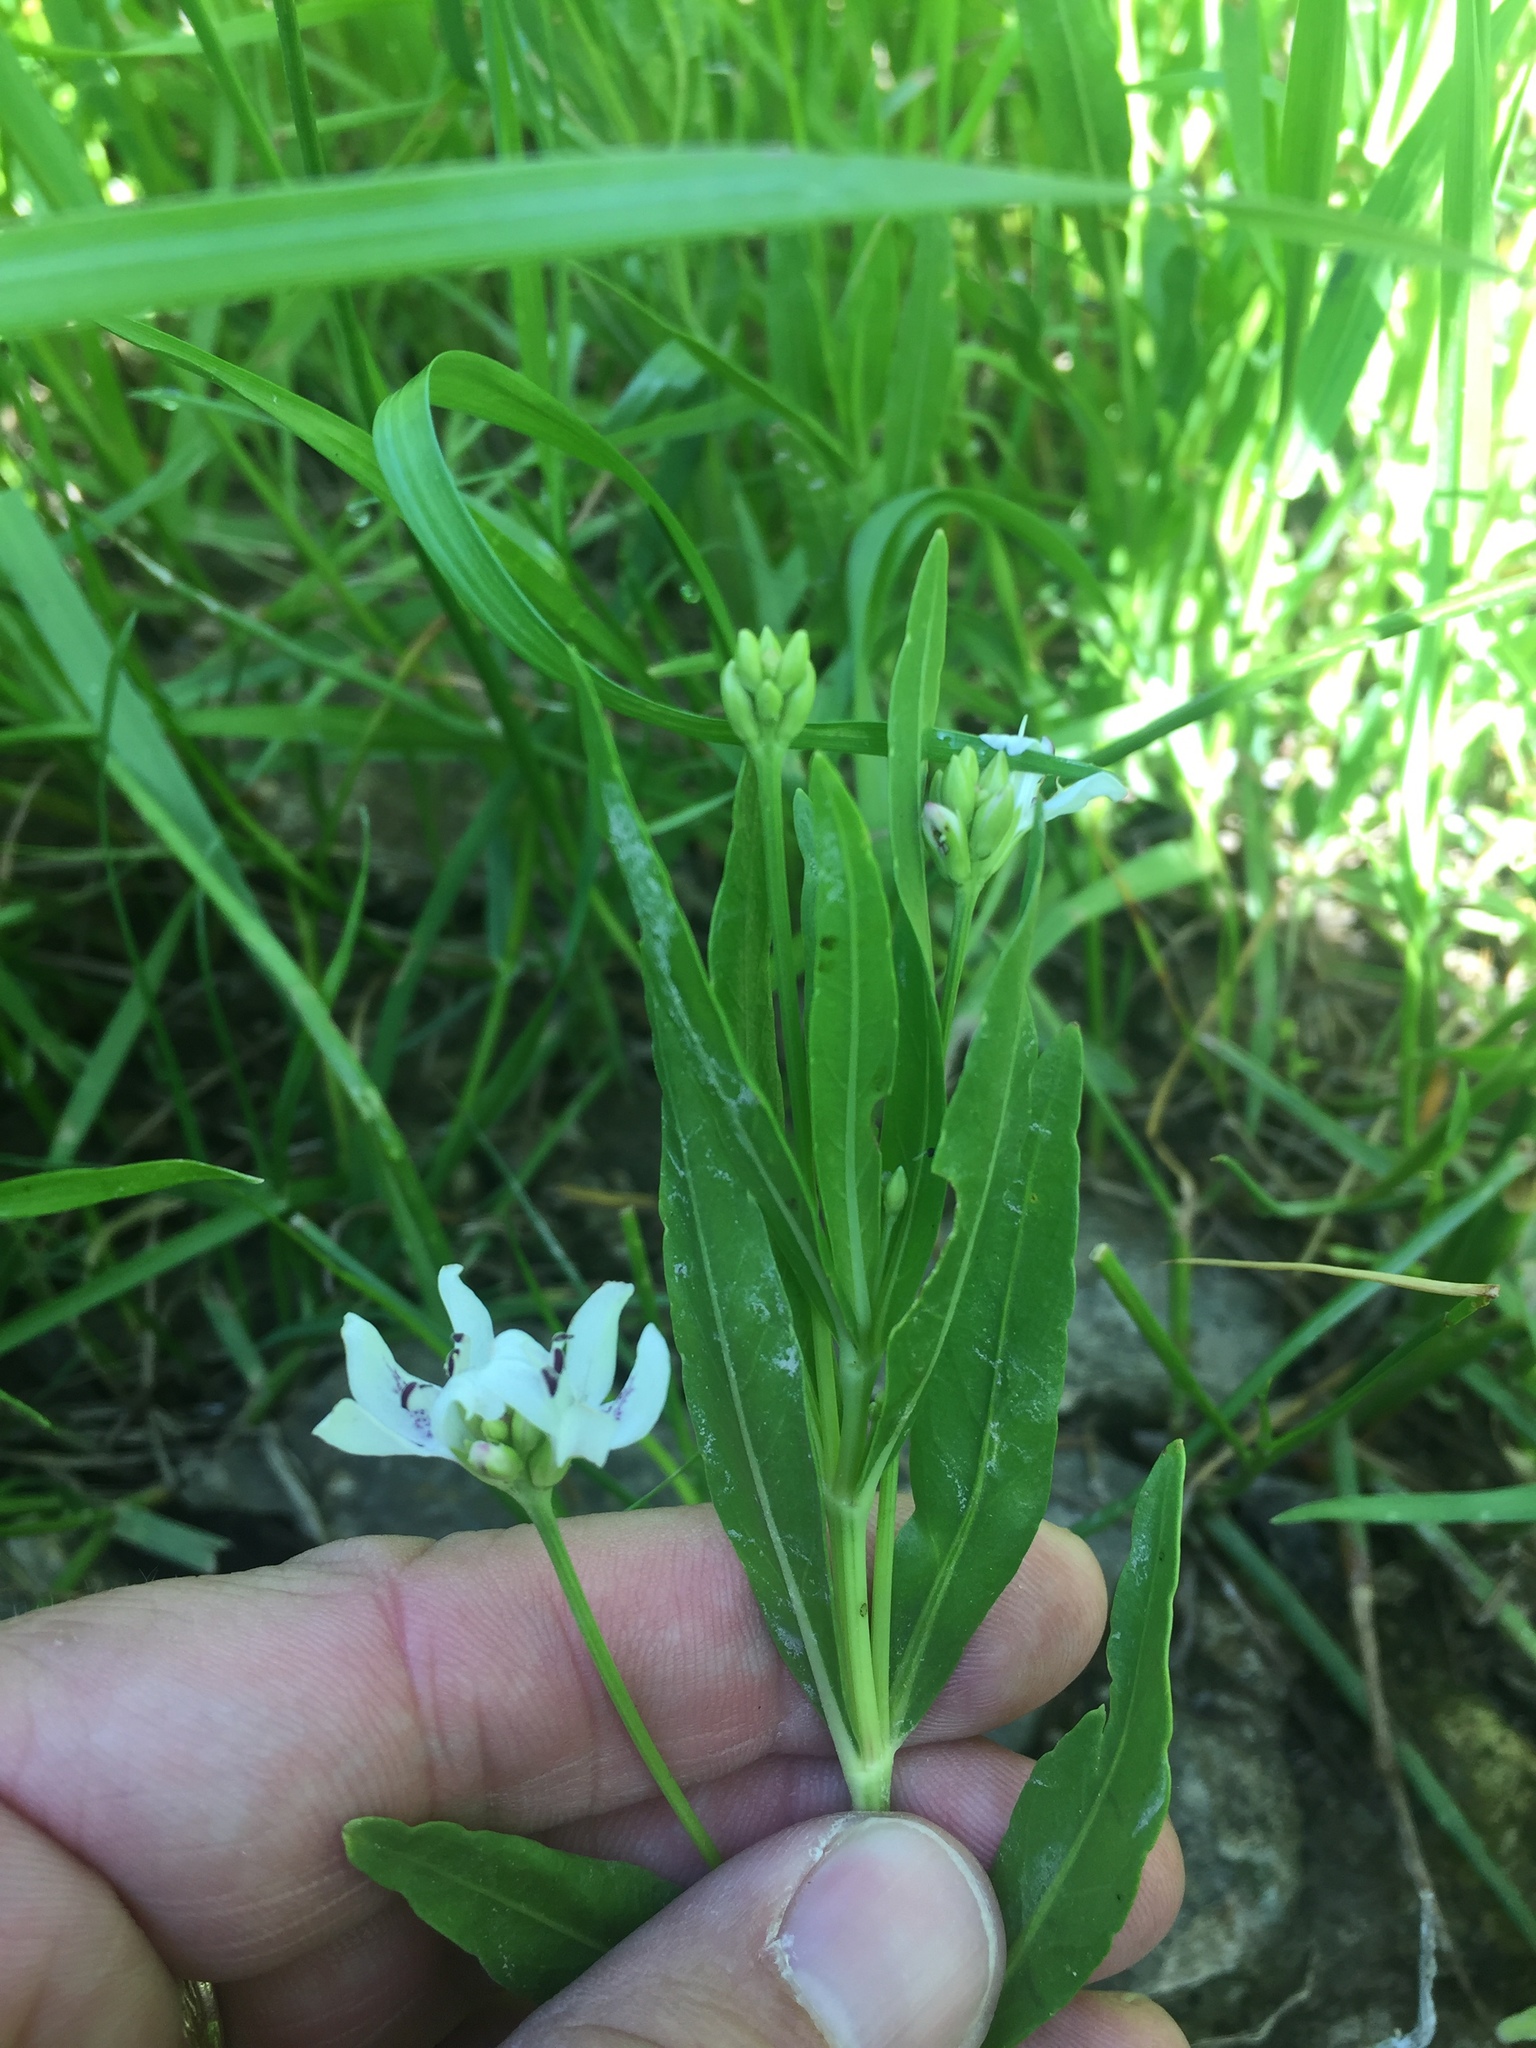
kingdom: Plantae
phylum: Tracheophyta
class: Magnoliopsida
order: Lamiales
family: Acanthaceae
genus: Dianthera
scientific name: Dianthera americana
